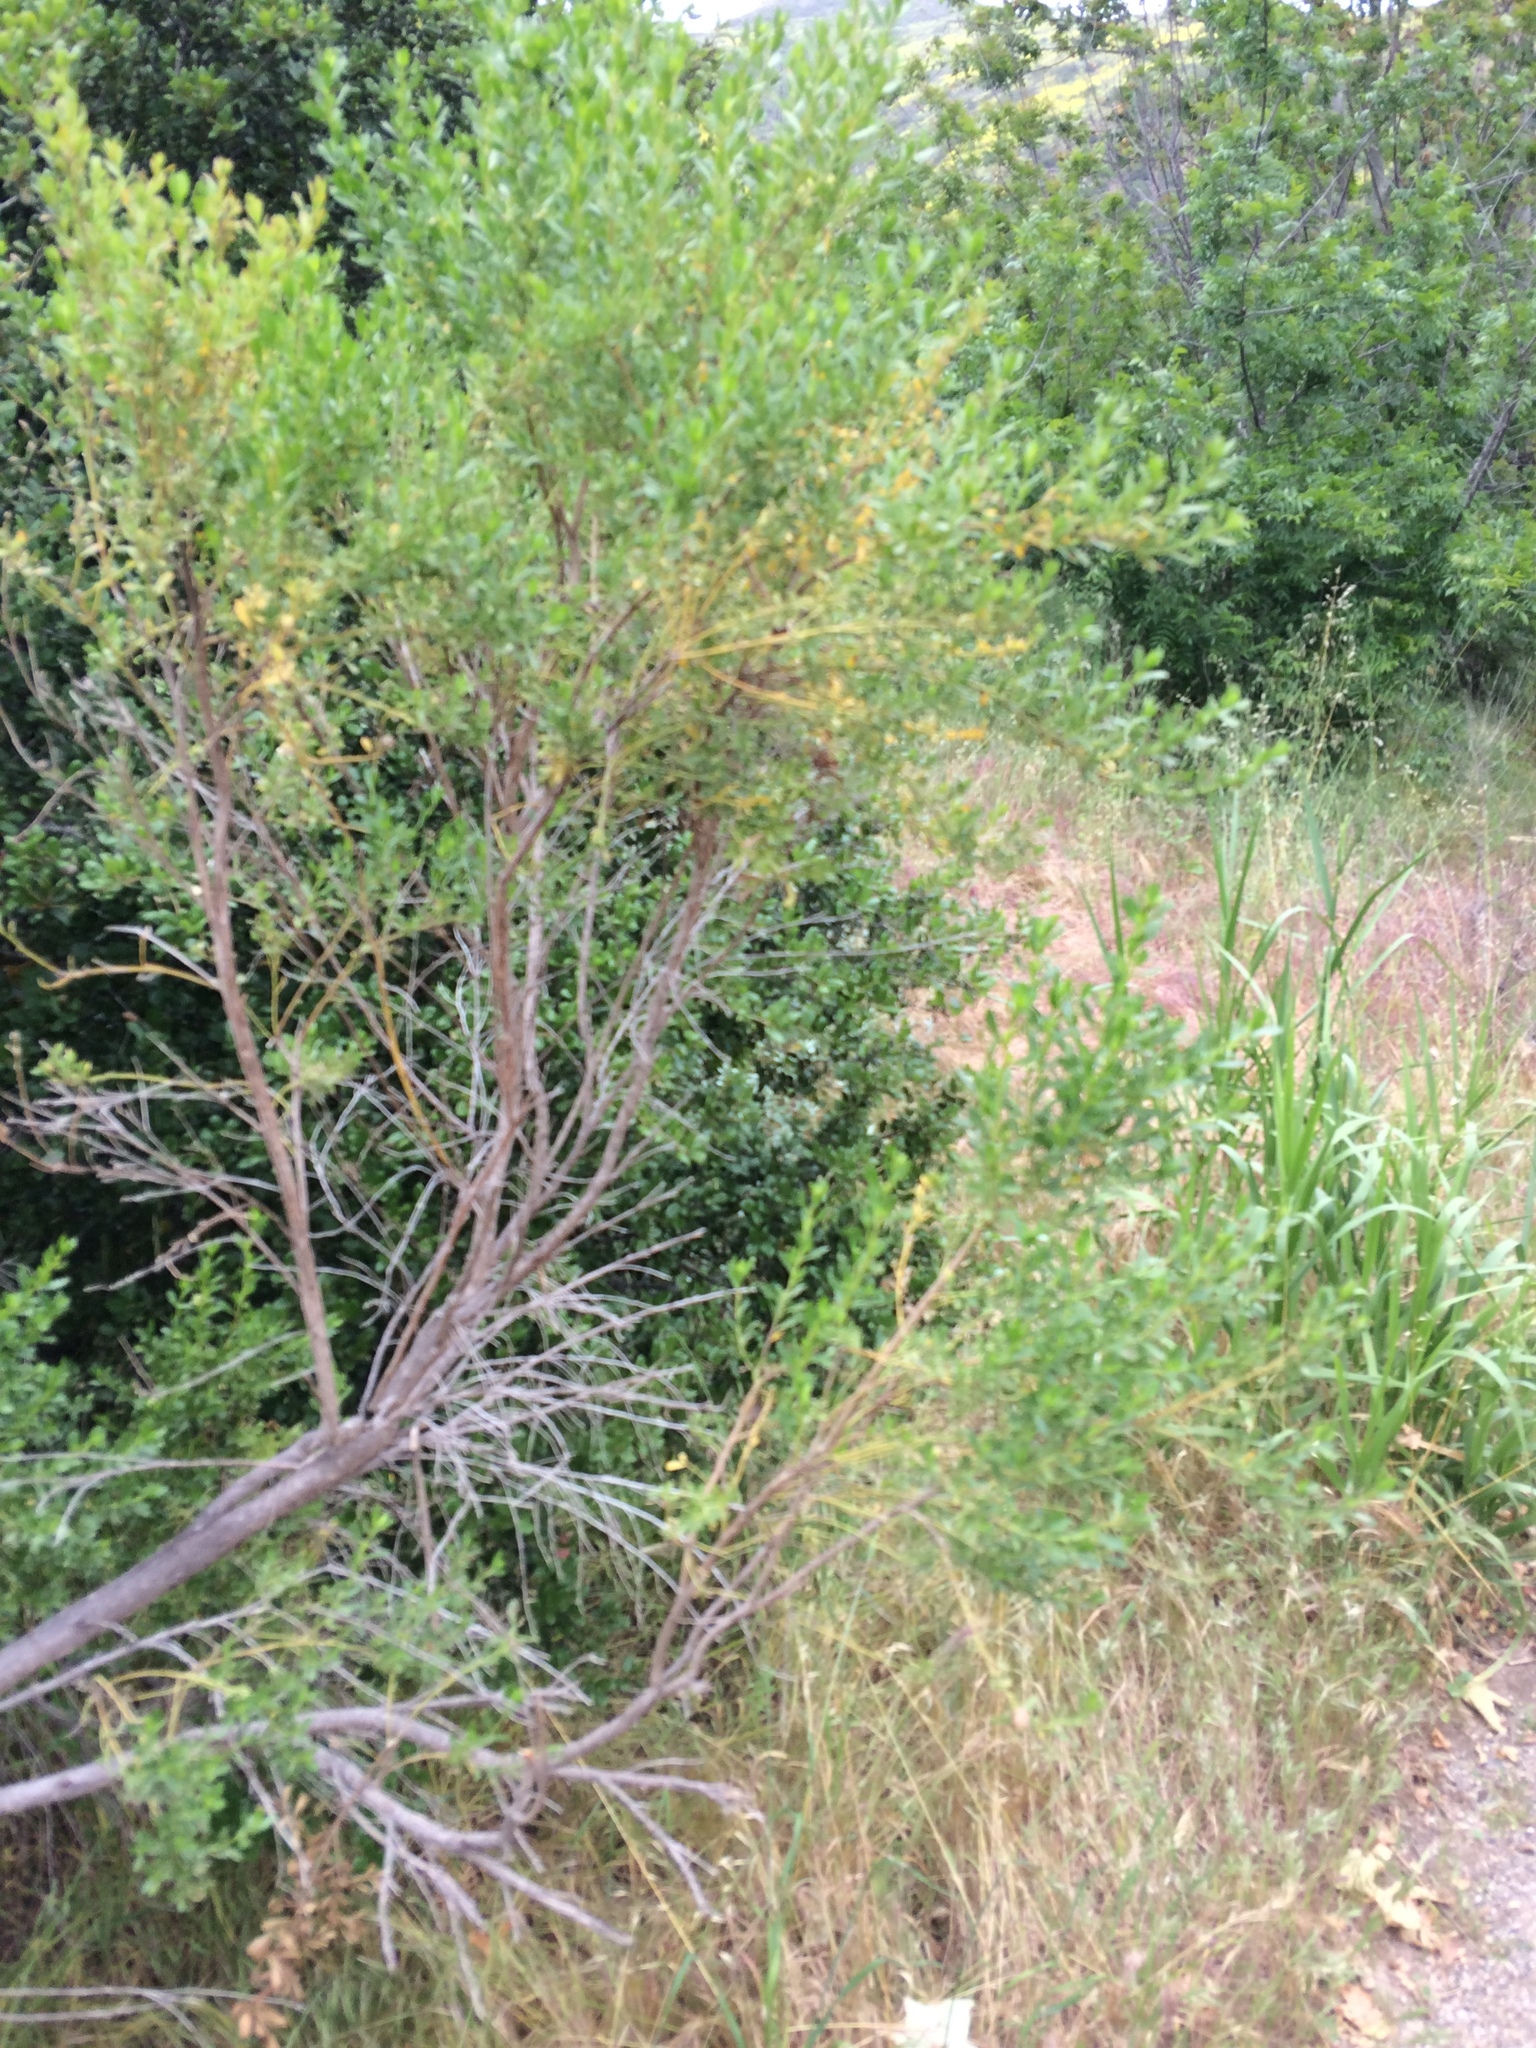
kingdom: Plantae
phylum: Tracheophyta
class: Magnoliopsida
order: Asterales
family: Asteraceae
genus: Baccharis
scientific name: Baccharis pilularis
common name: Coyotebrush
